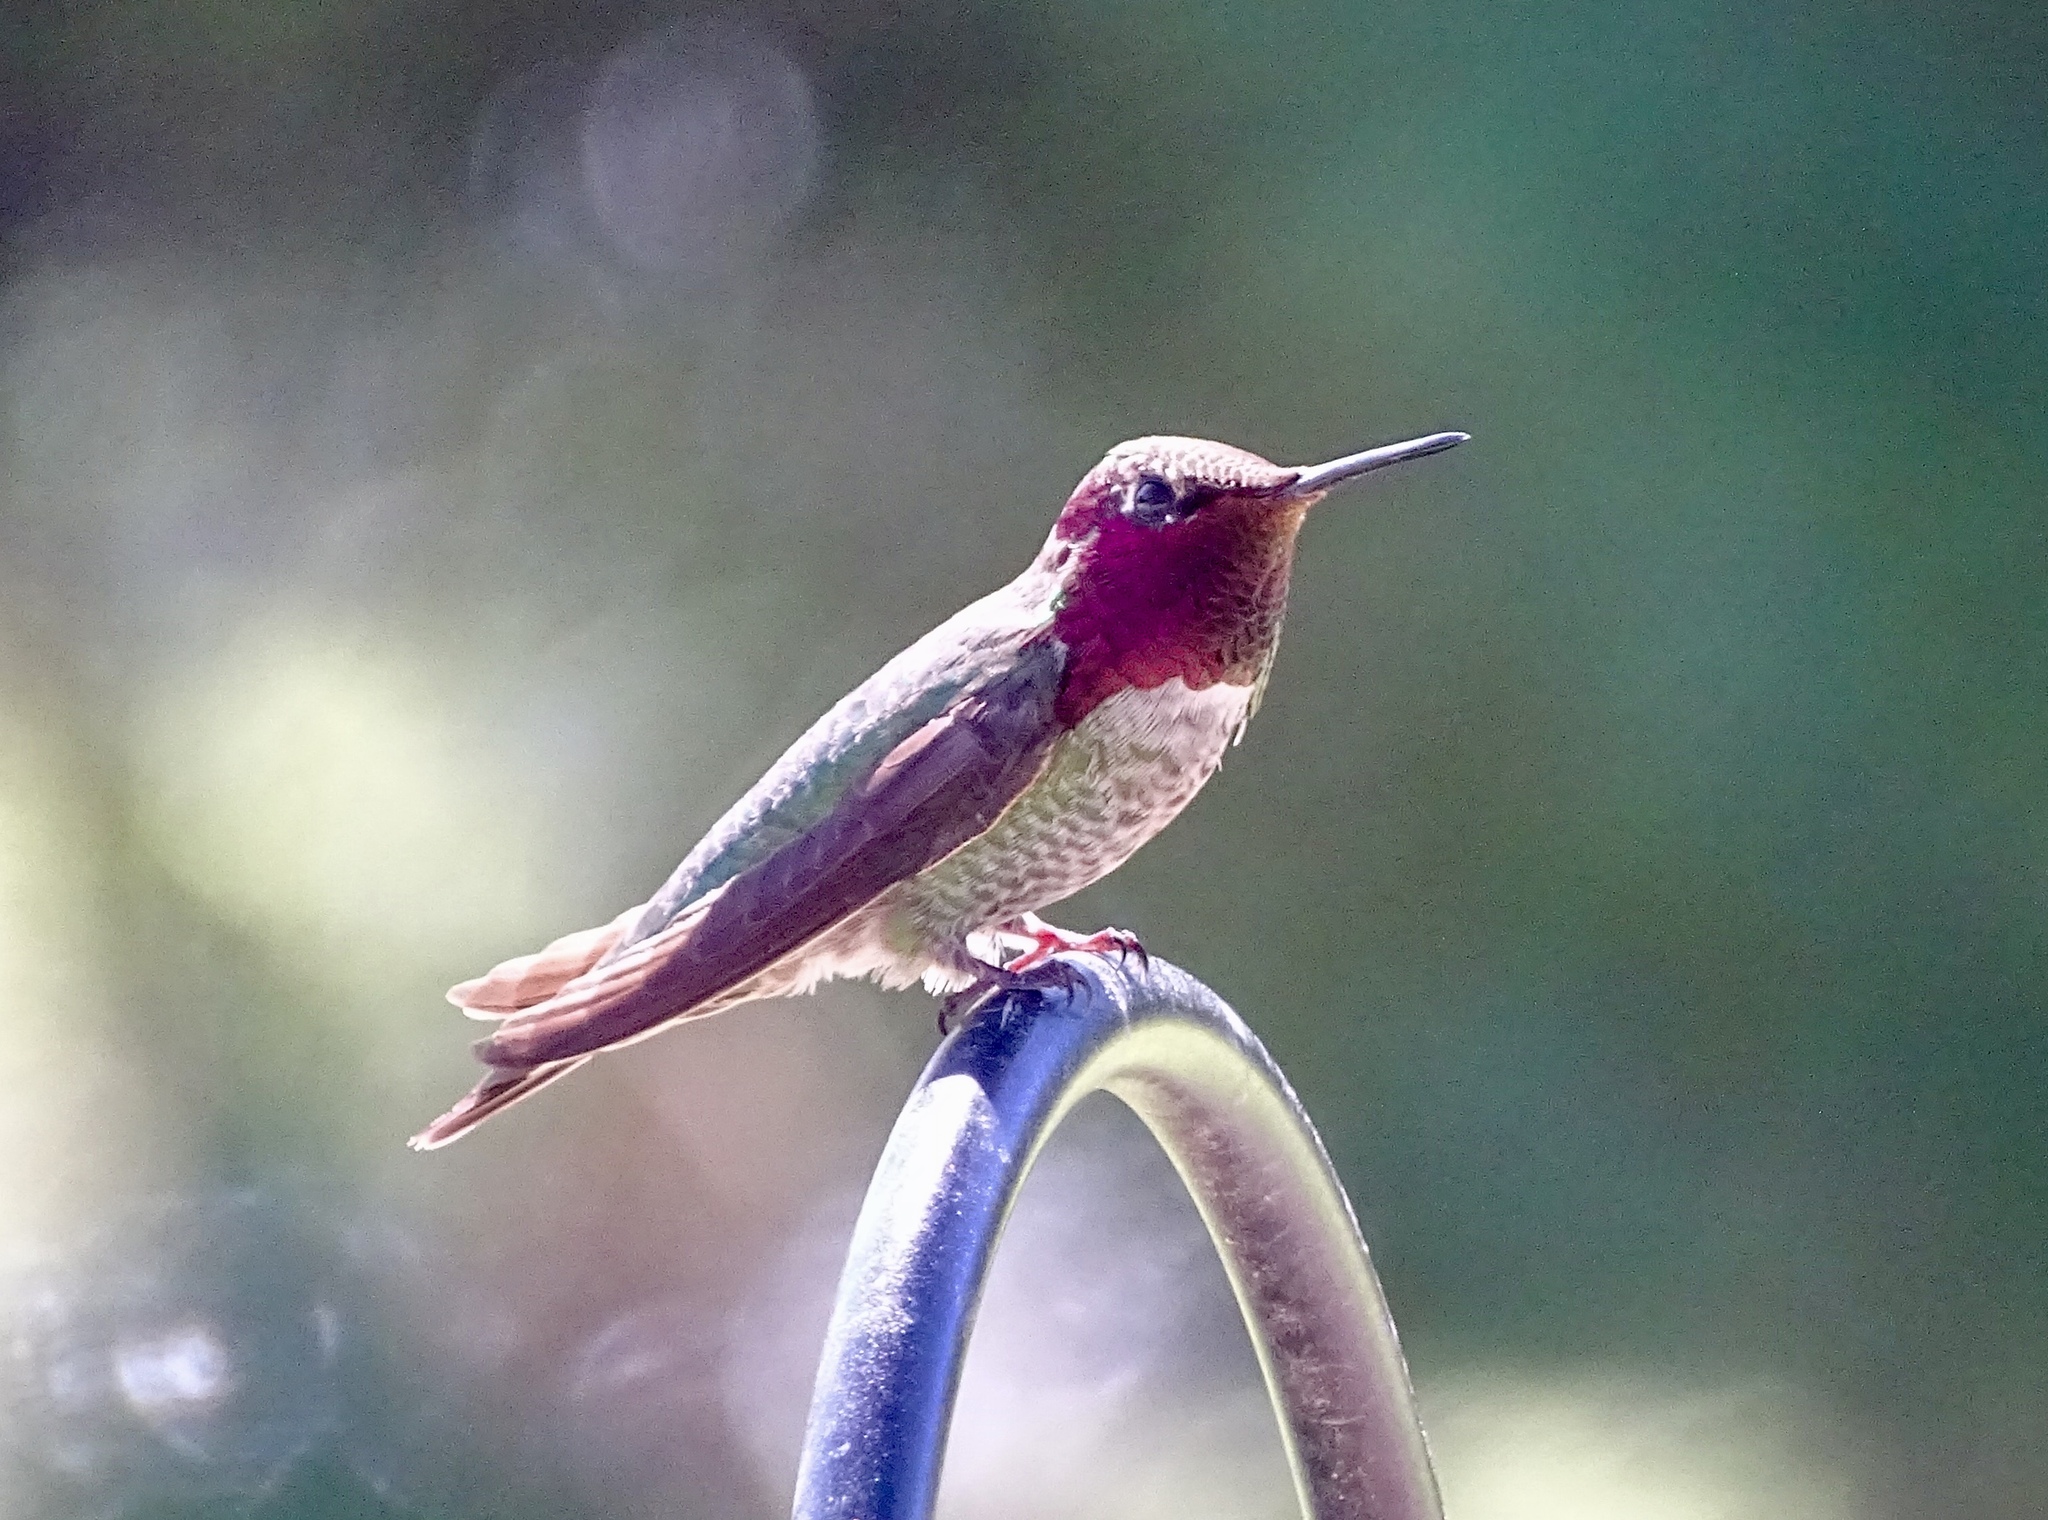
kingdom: Animalia
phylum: Chordata
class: Aves
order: Apodiformes
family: Trochilidae
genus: Calypte
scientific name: Calypte anna
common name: Anna's hummingbird
